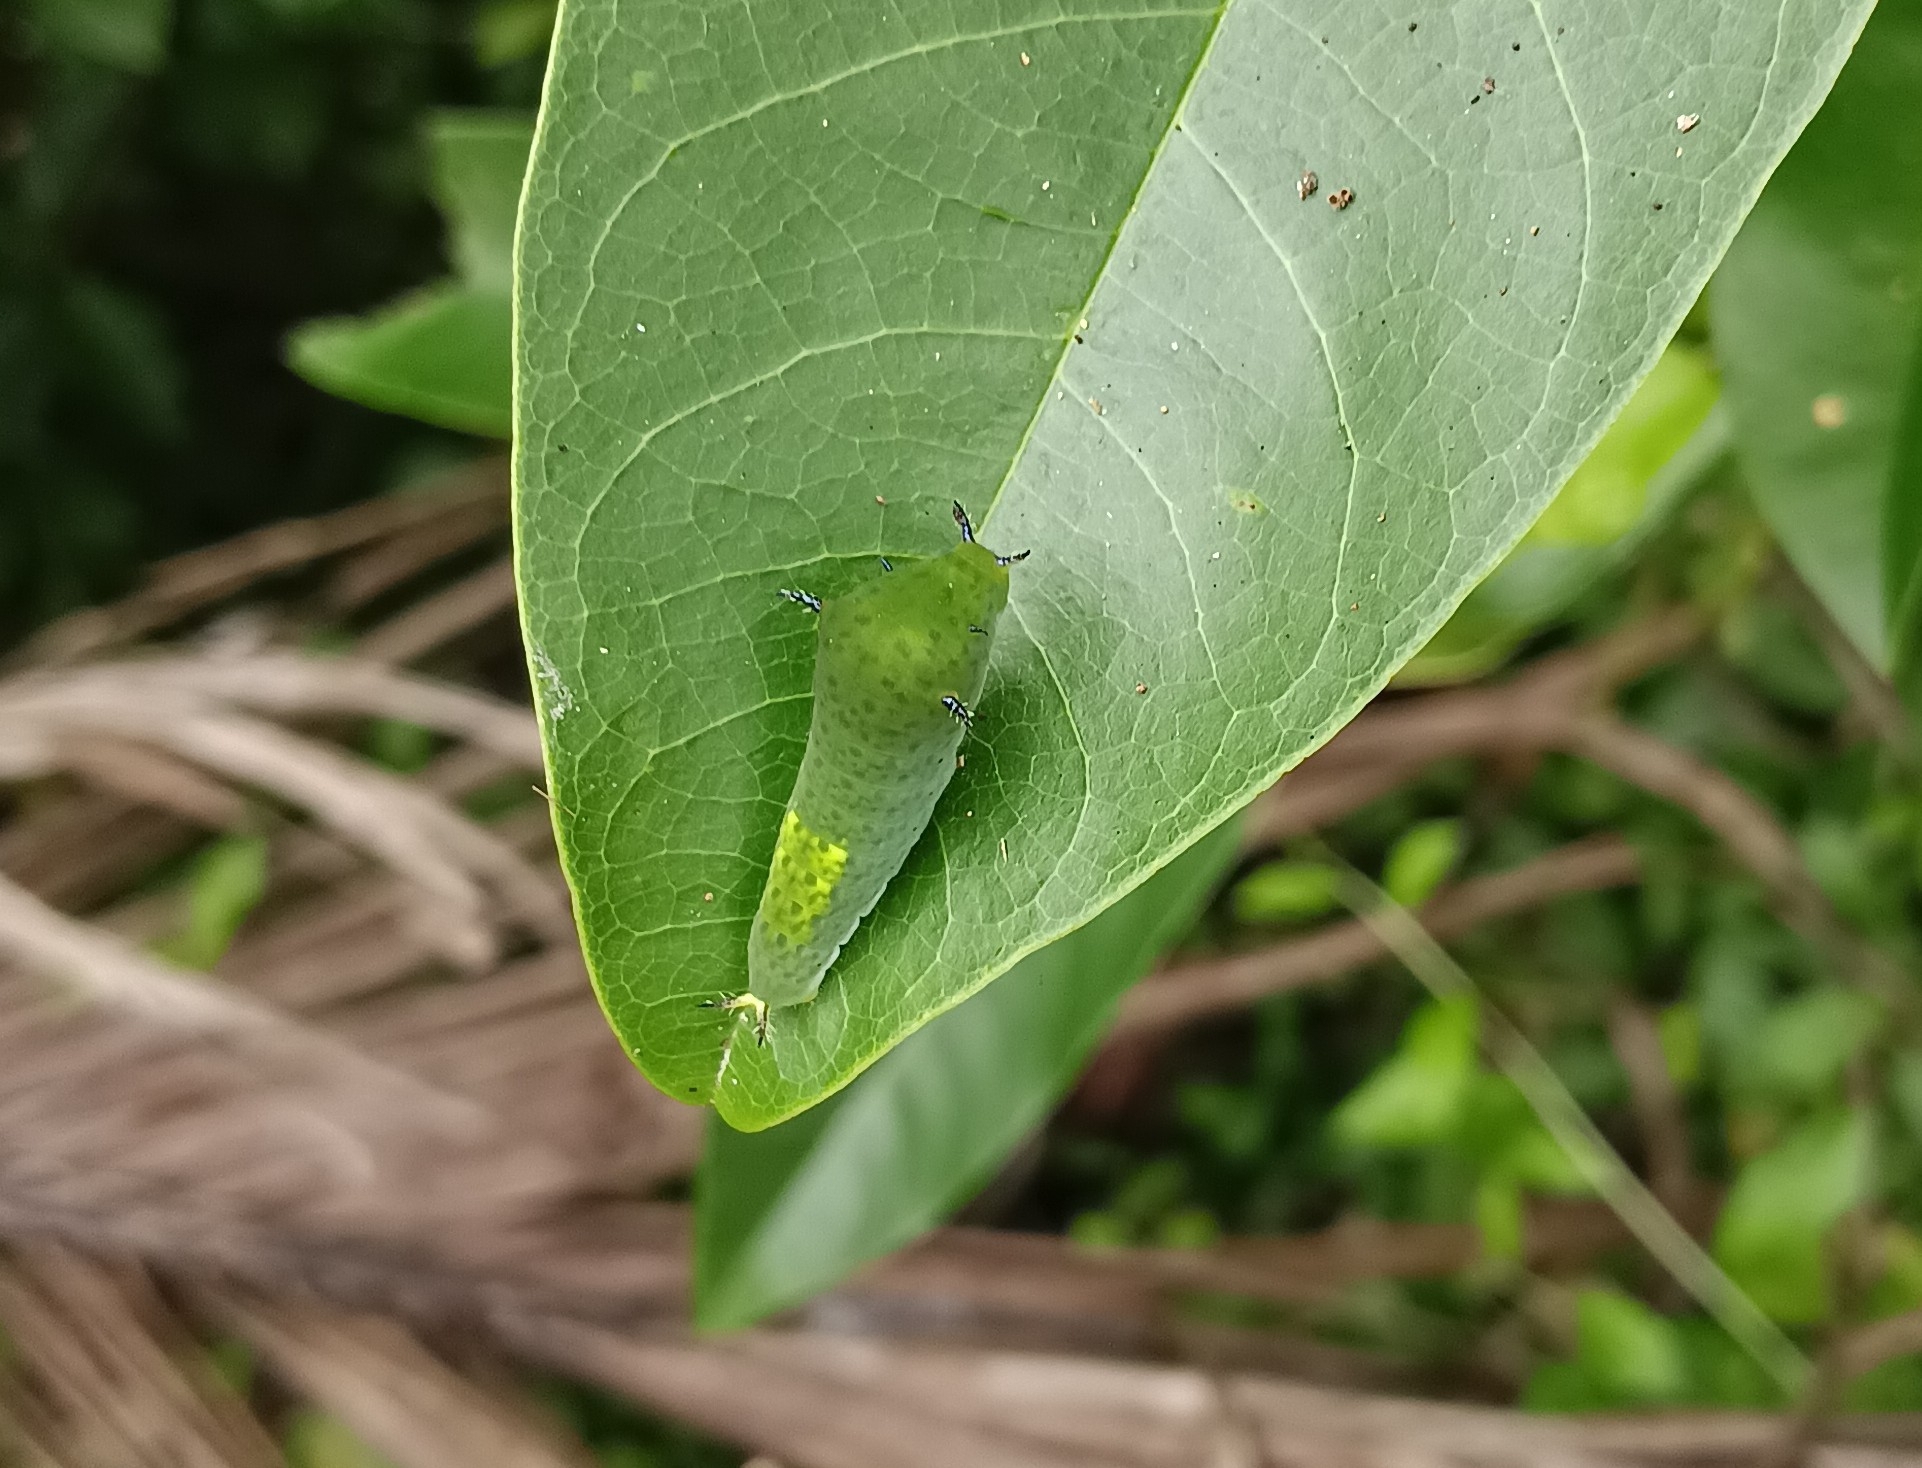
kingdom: Animalia
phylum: Arthropoda
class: Insecta
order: Lepidoptera
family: Papilionidae
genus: Graphium
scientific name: Graphium agamemnon
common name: Tailed jay
